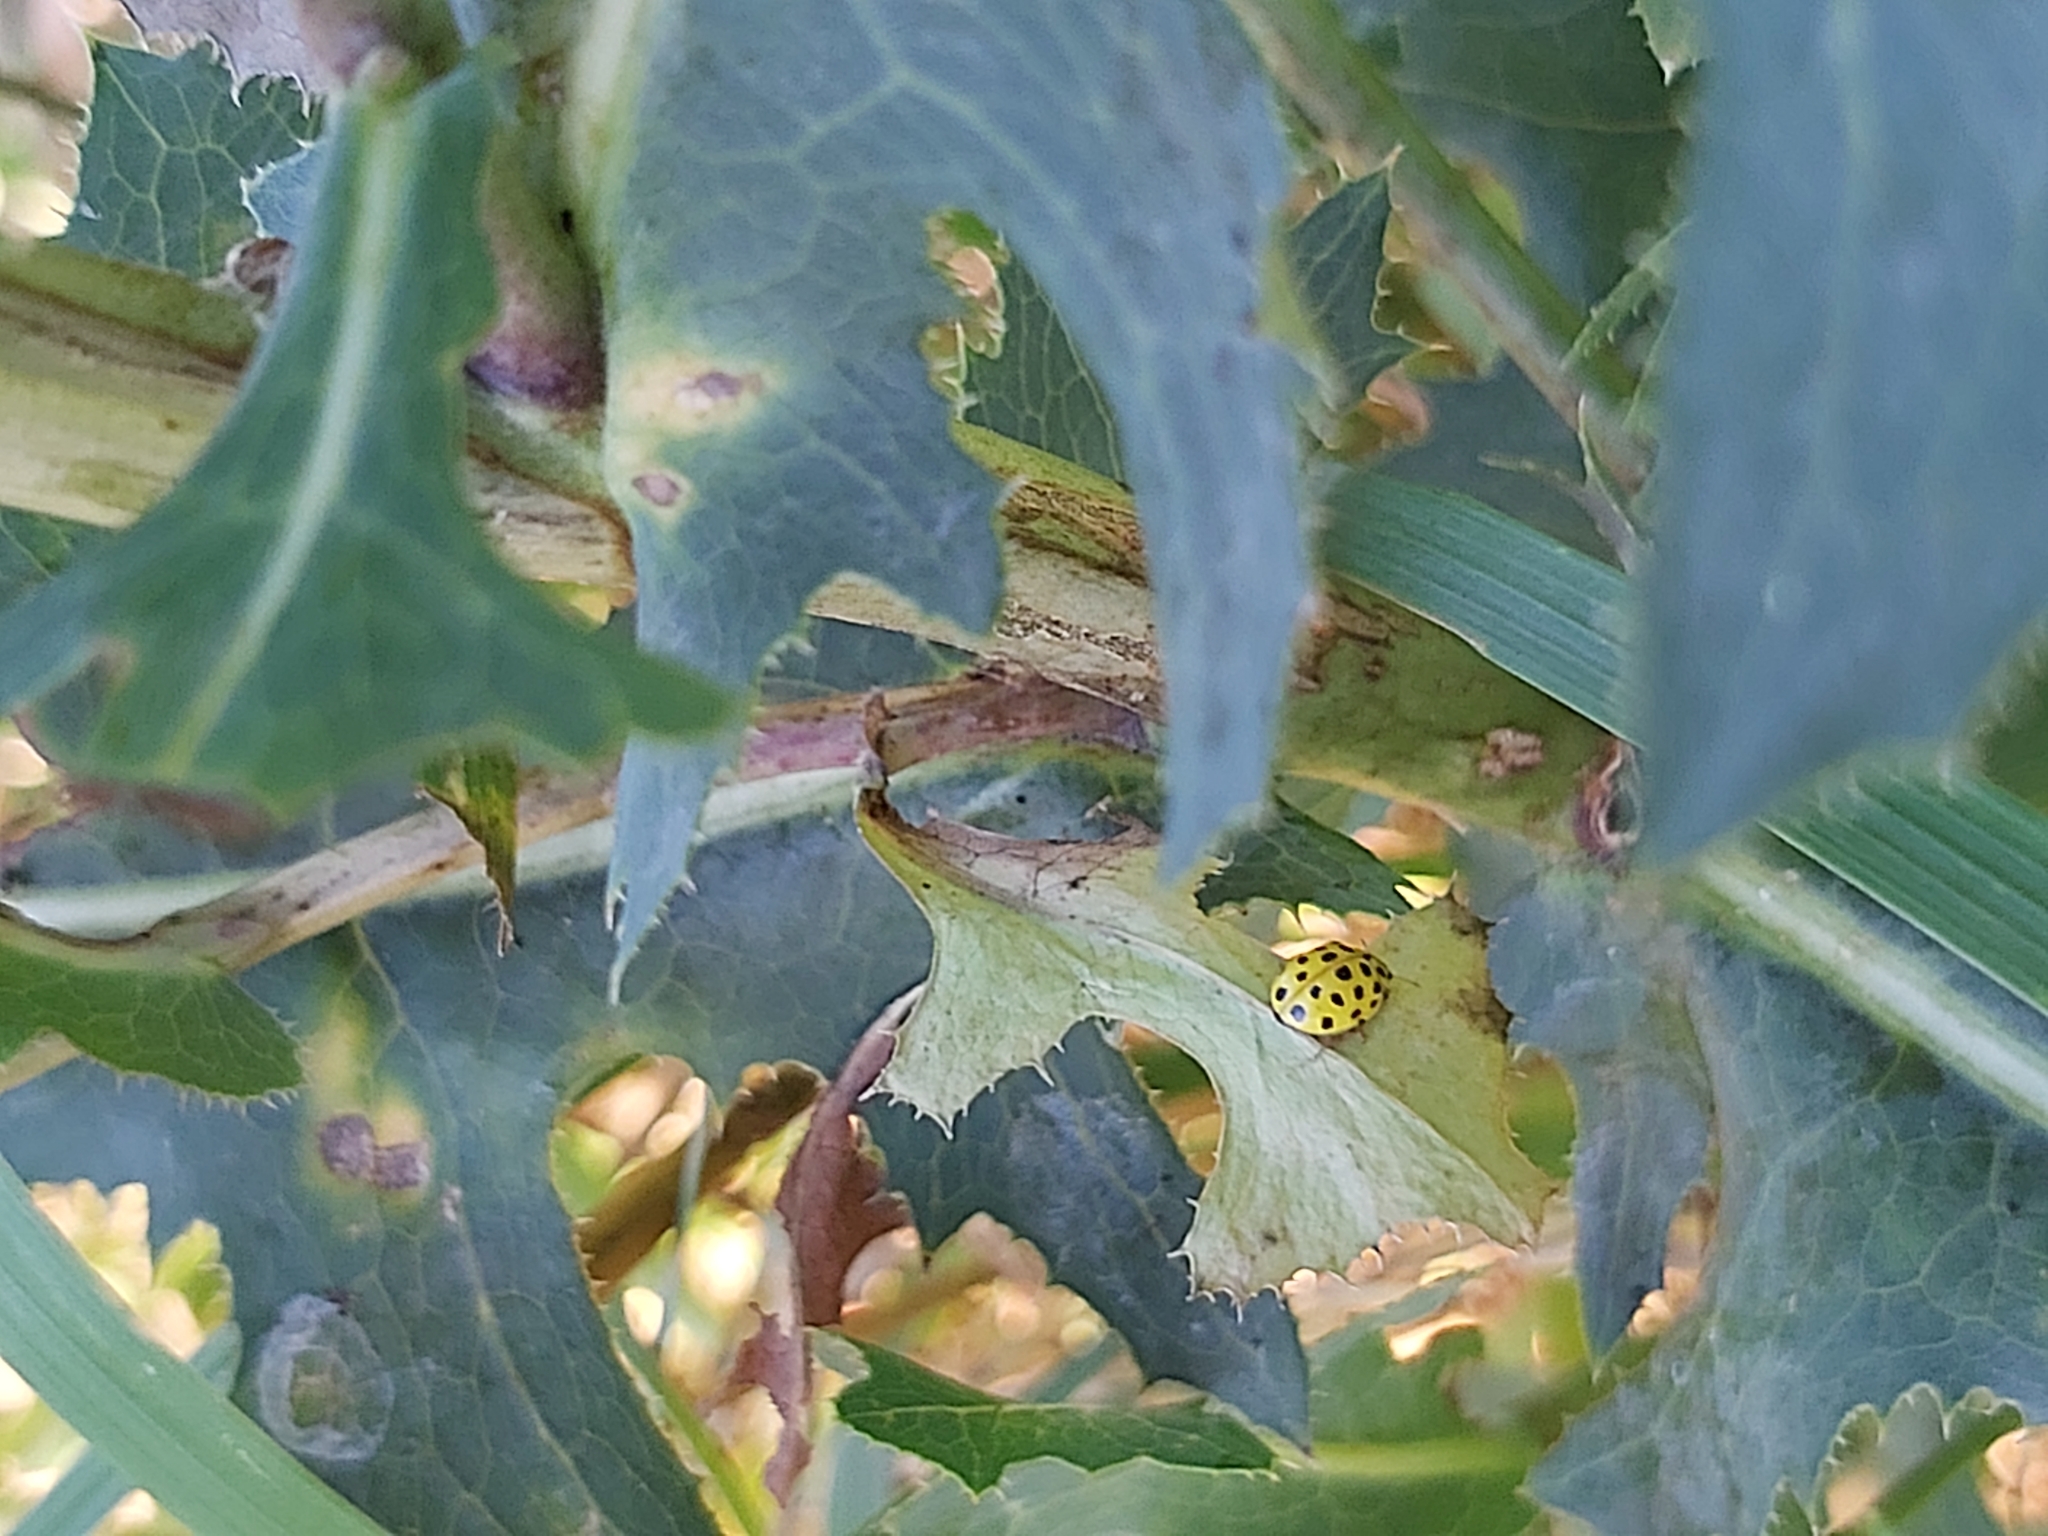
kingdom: Animalia
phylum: Arthropoda
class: Insecta
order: Coleoptera
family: Coccinellidae
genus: Psyllobora
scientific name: Psyllobora vigintiduopunctata
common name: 22-spot ladybird
